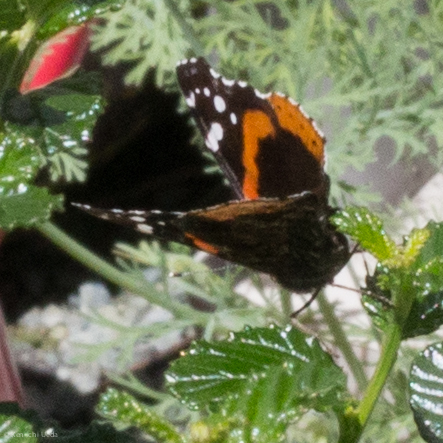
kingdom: Animalia
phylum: Arthropoda
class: Insecta
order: Lepidoptera
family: Nymphalidae
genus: Vanessa
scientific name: Vanessa atalanta
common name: Red admiral
